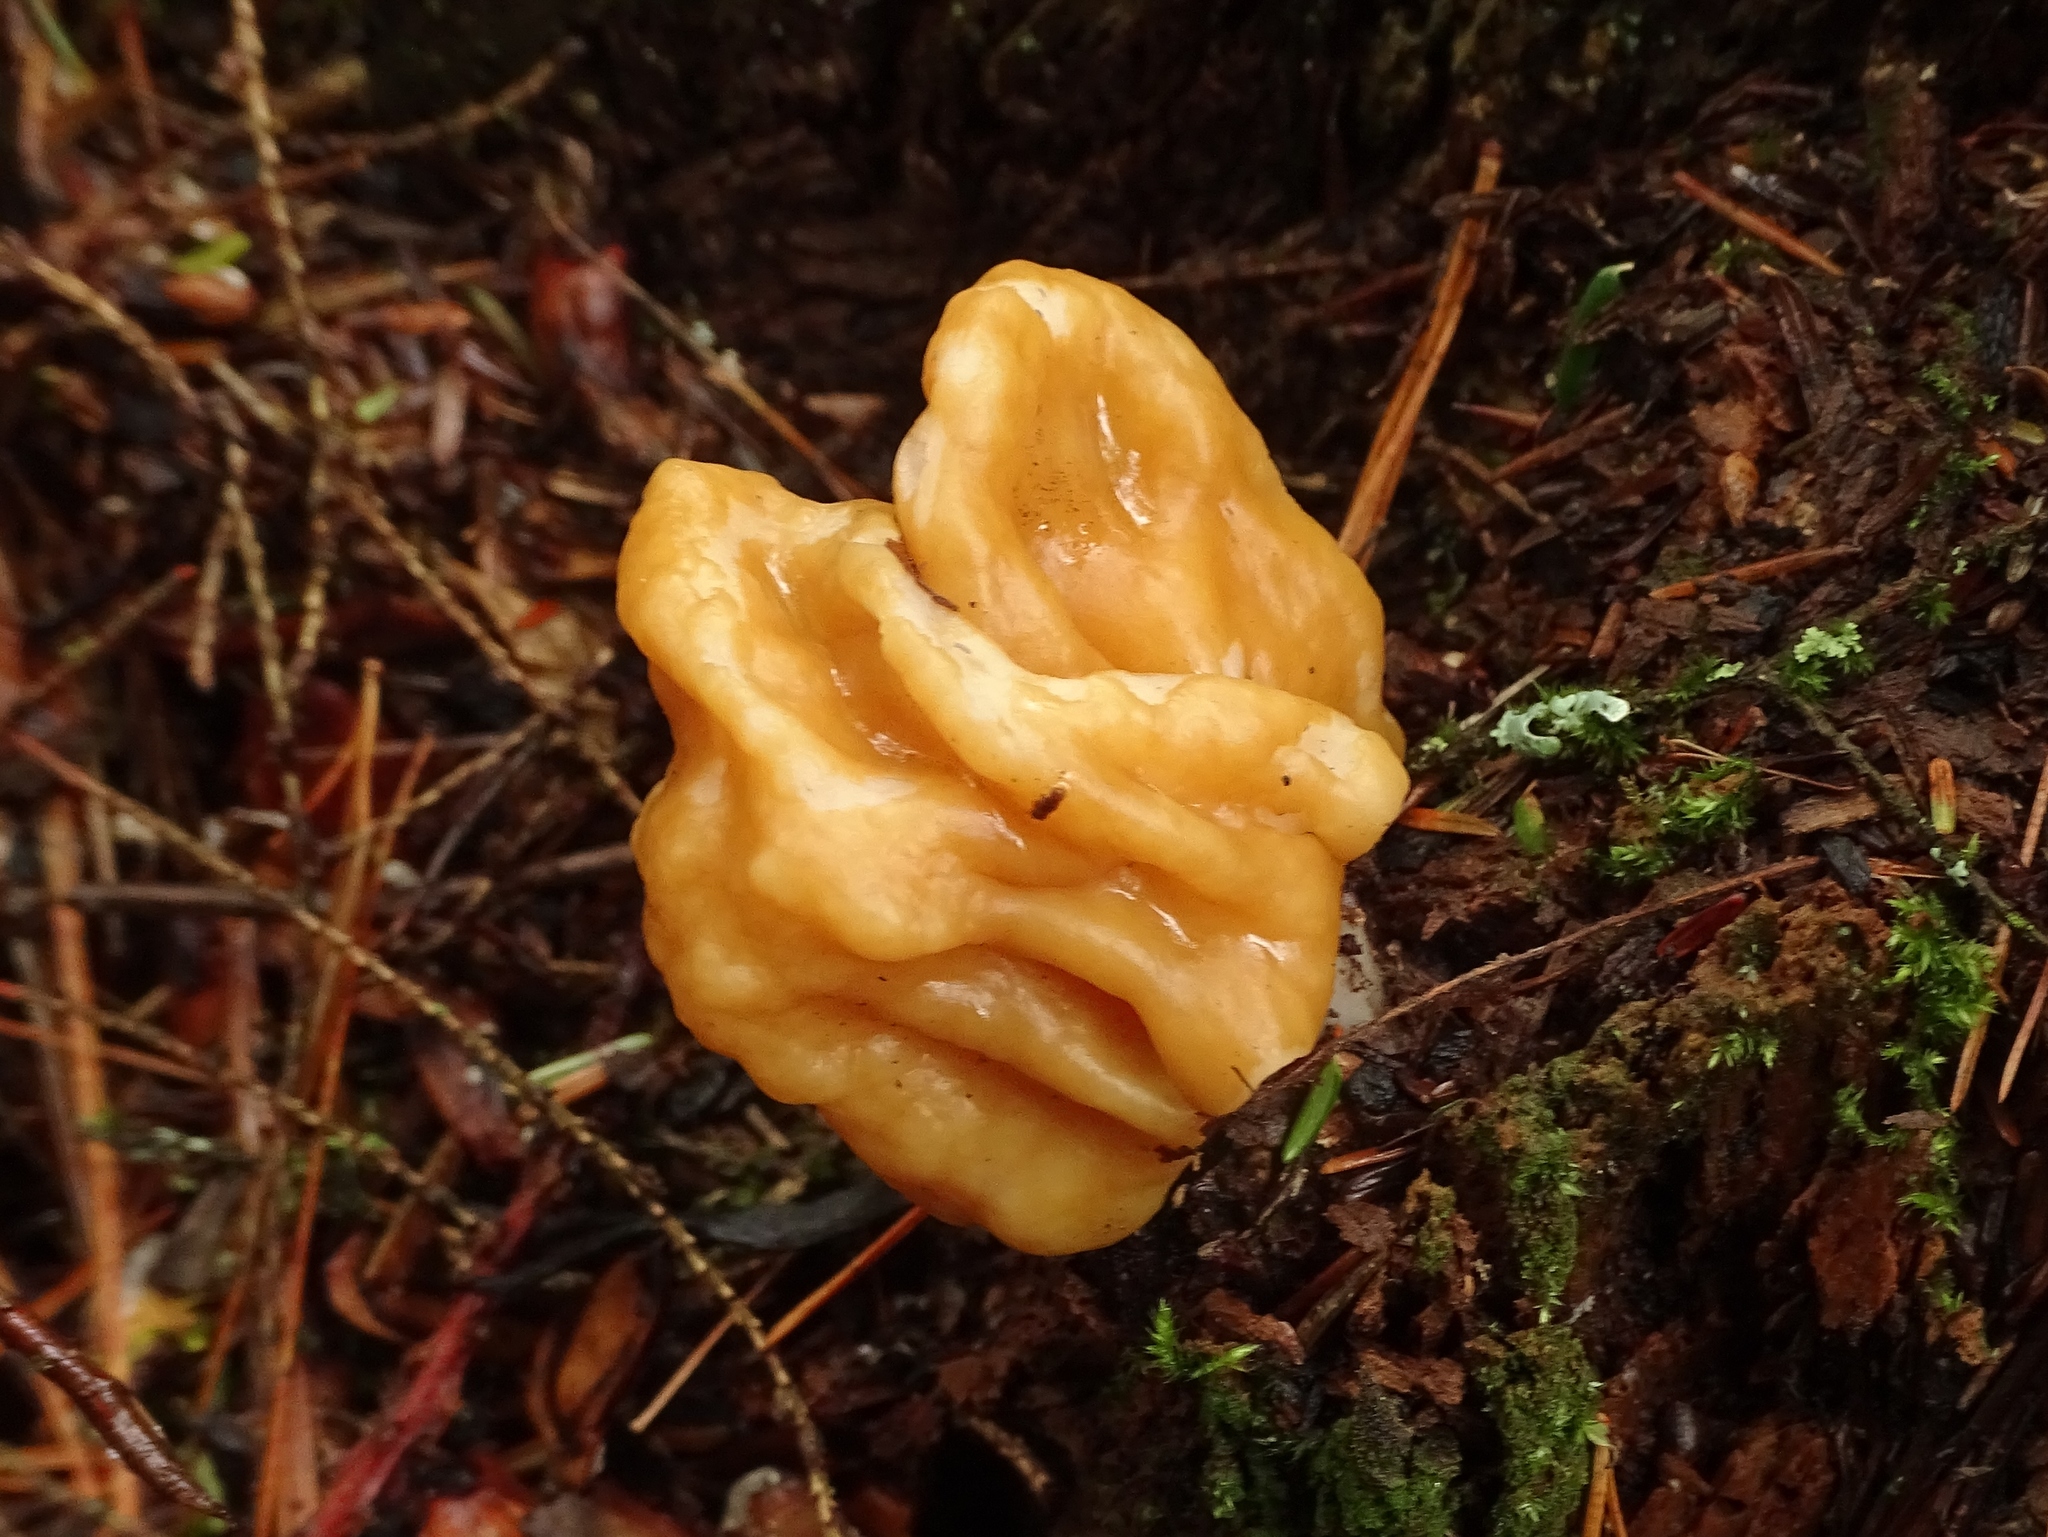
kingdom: Fungi
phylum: Ascomycota
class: Pezizomycetes
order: Pezizales
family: Discinaceae
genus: Gyromitra
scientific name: Gyromitra korfii
